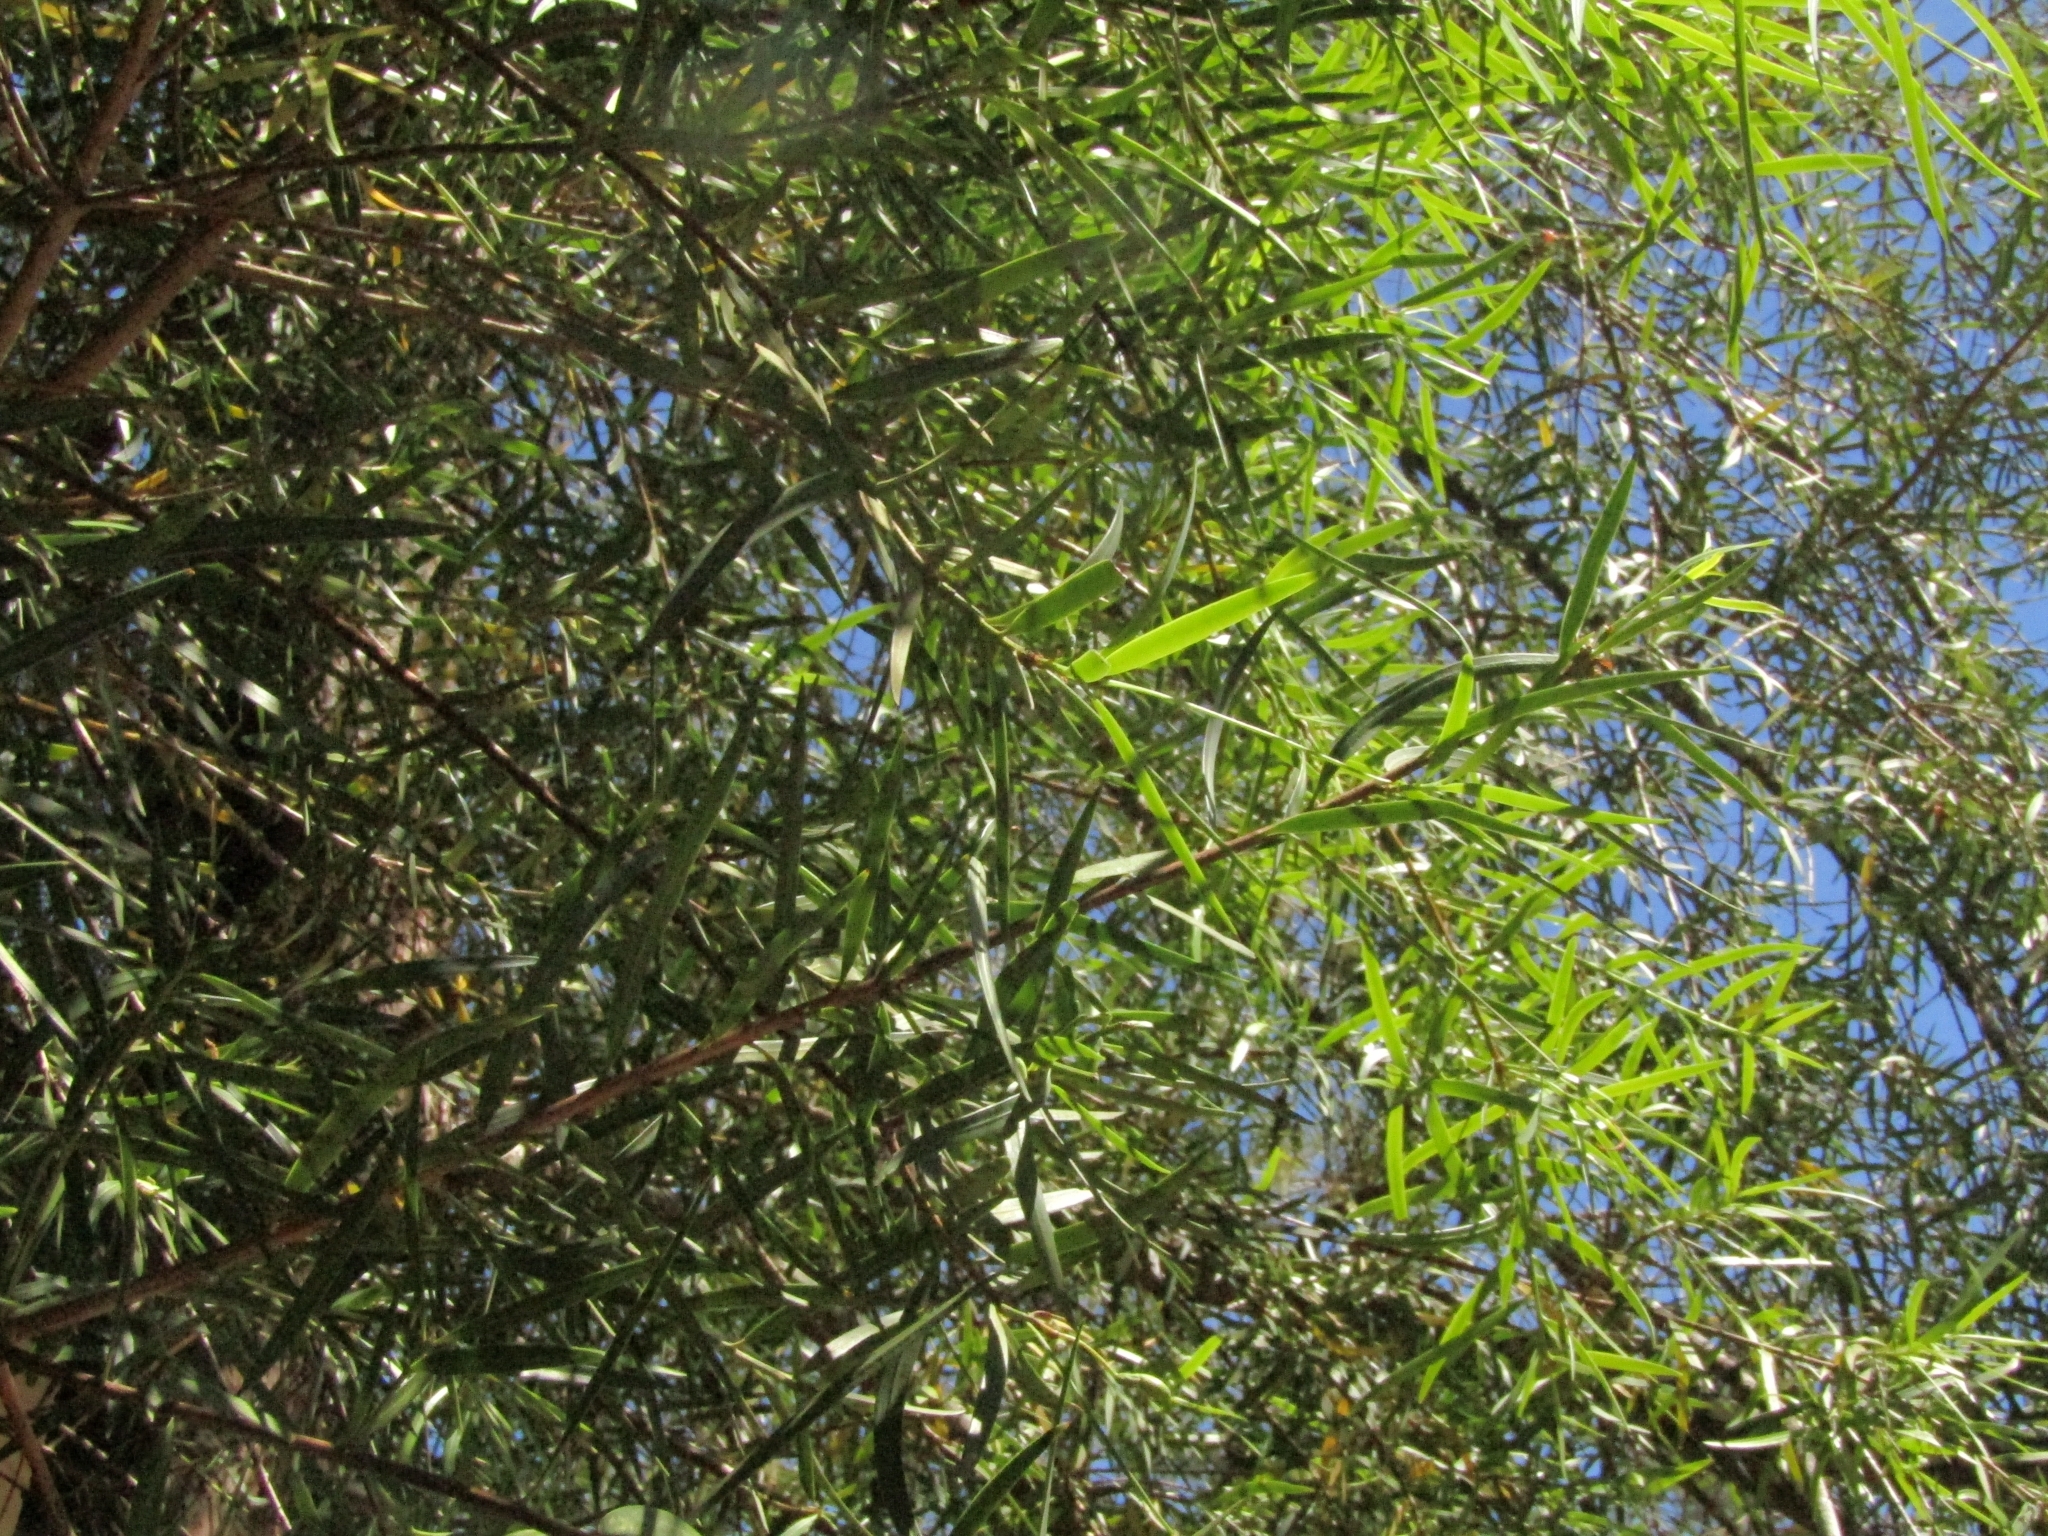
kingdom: Plantae
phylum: Tracheophyta
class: Pinopsida
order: Pinales
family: Podocarpaceae
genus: Podocarpus
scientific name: Podocarpus salignus
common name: Willow-leaf podocarp
